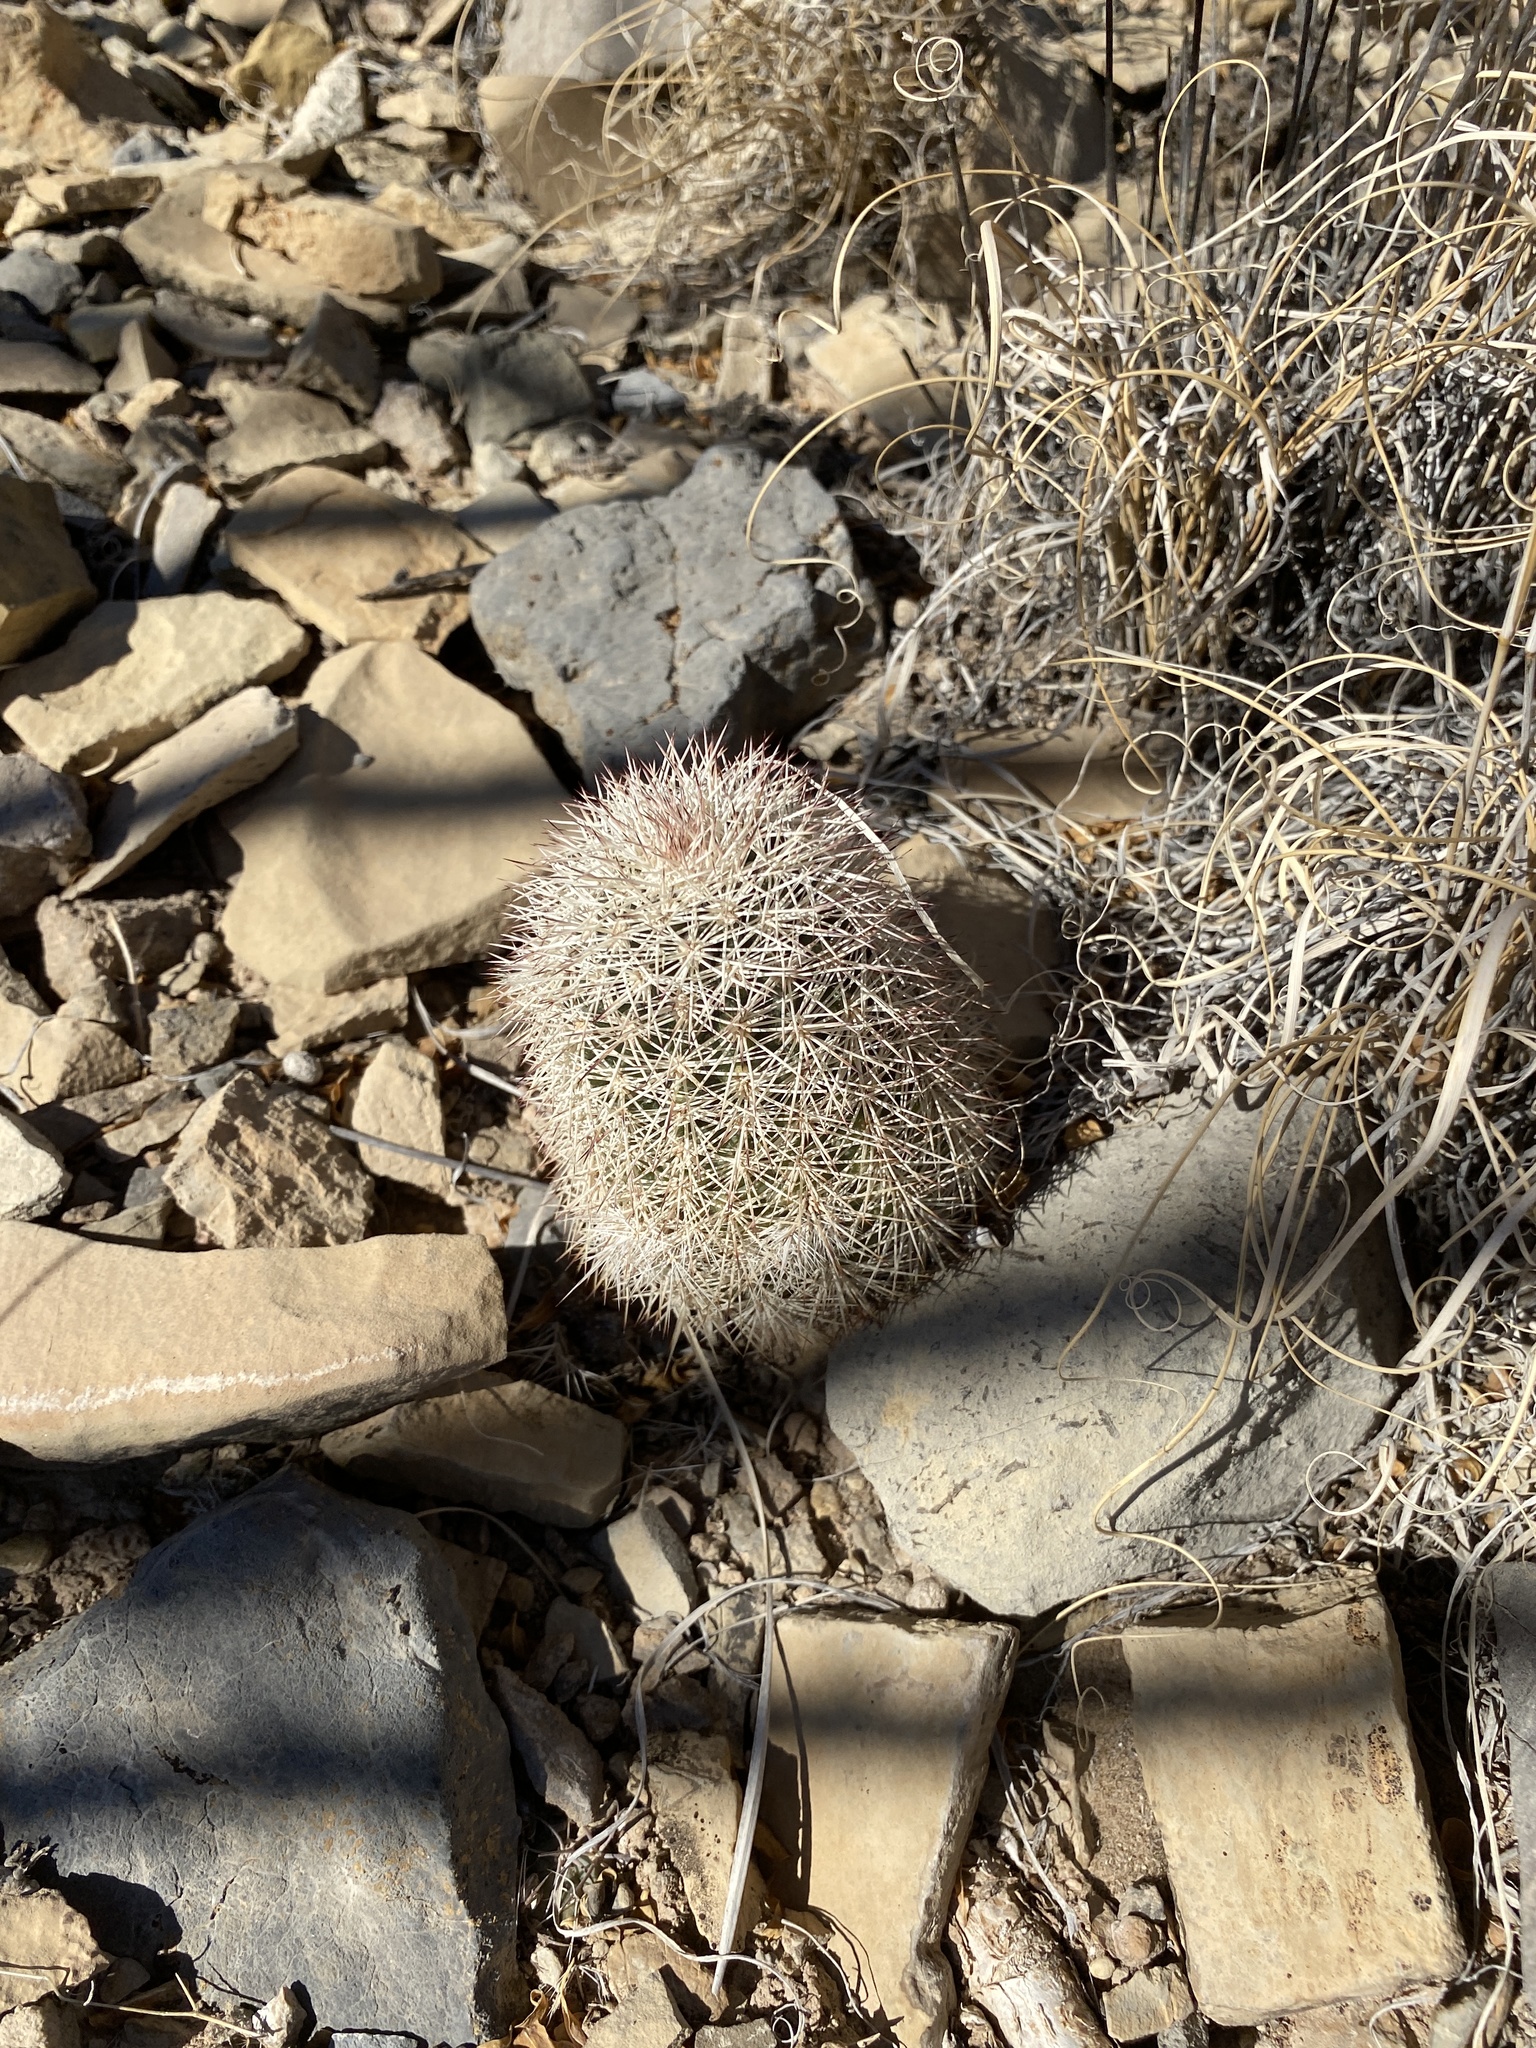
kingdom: Plantae
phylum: Tracheophyta
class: Magnoliopsida
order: Caryophyllales
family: Cactaceae
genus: Echinocereus
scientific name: Echinocereus dasyacanthus
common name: Spiny hedgehog cactus
